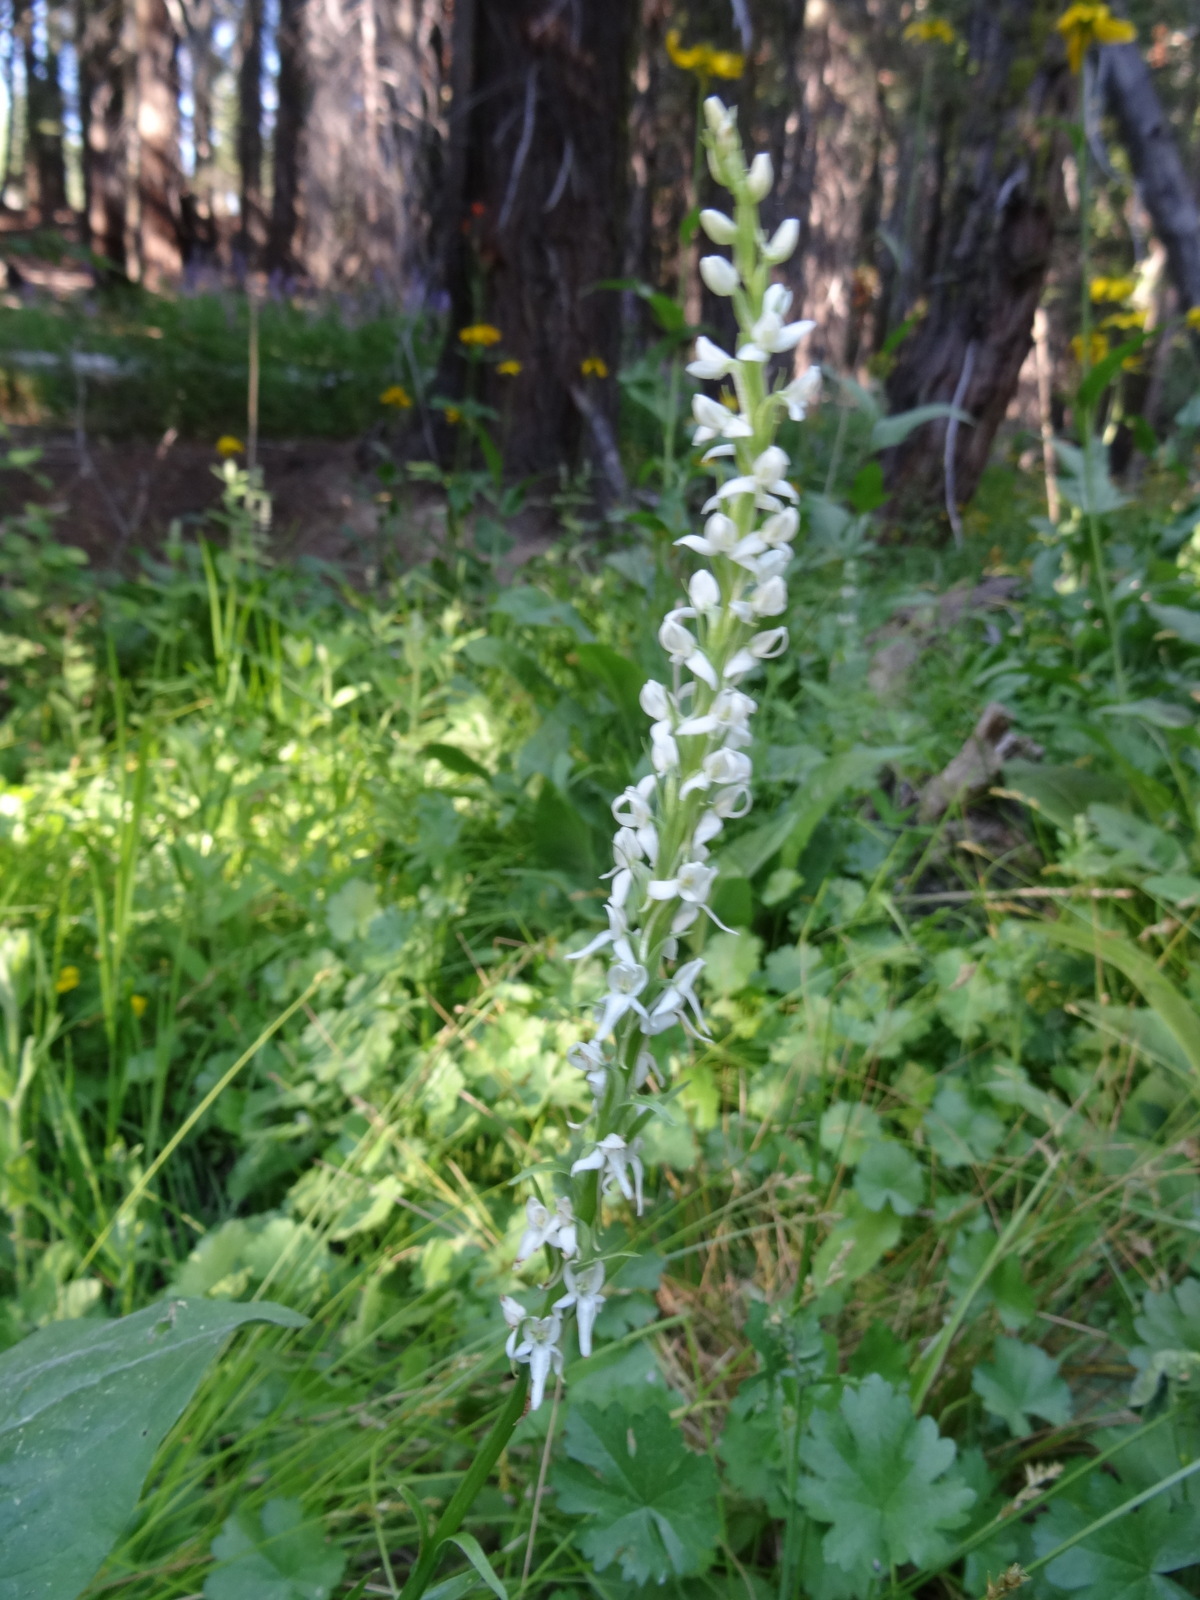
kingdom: Plantae
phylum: Tracheophyta
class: Liliopsida
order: Asparagales
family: Orchidaceae
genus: Platanthera
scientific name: Platanthera dilatata
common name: Bog candles
